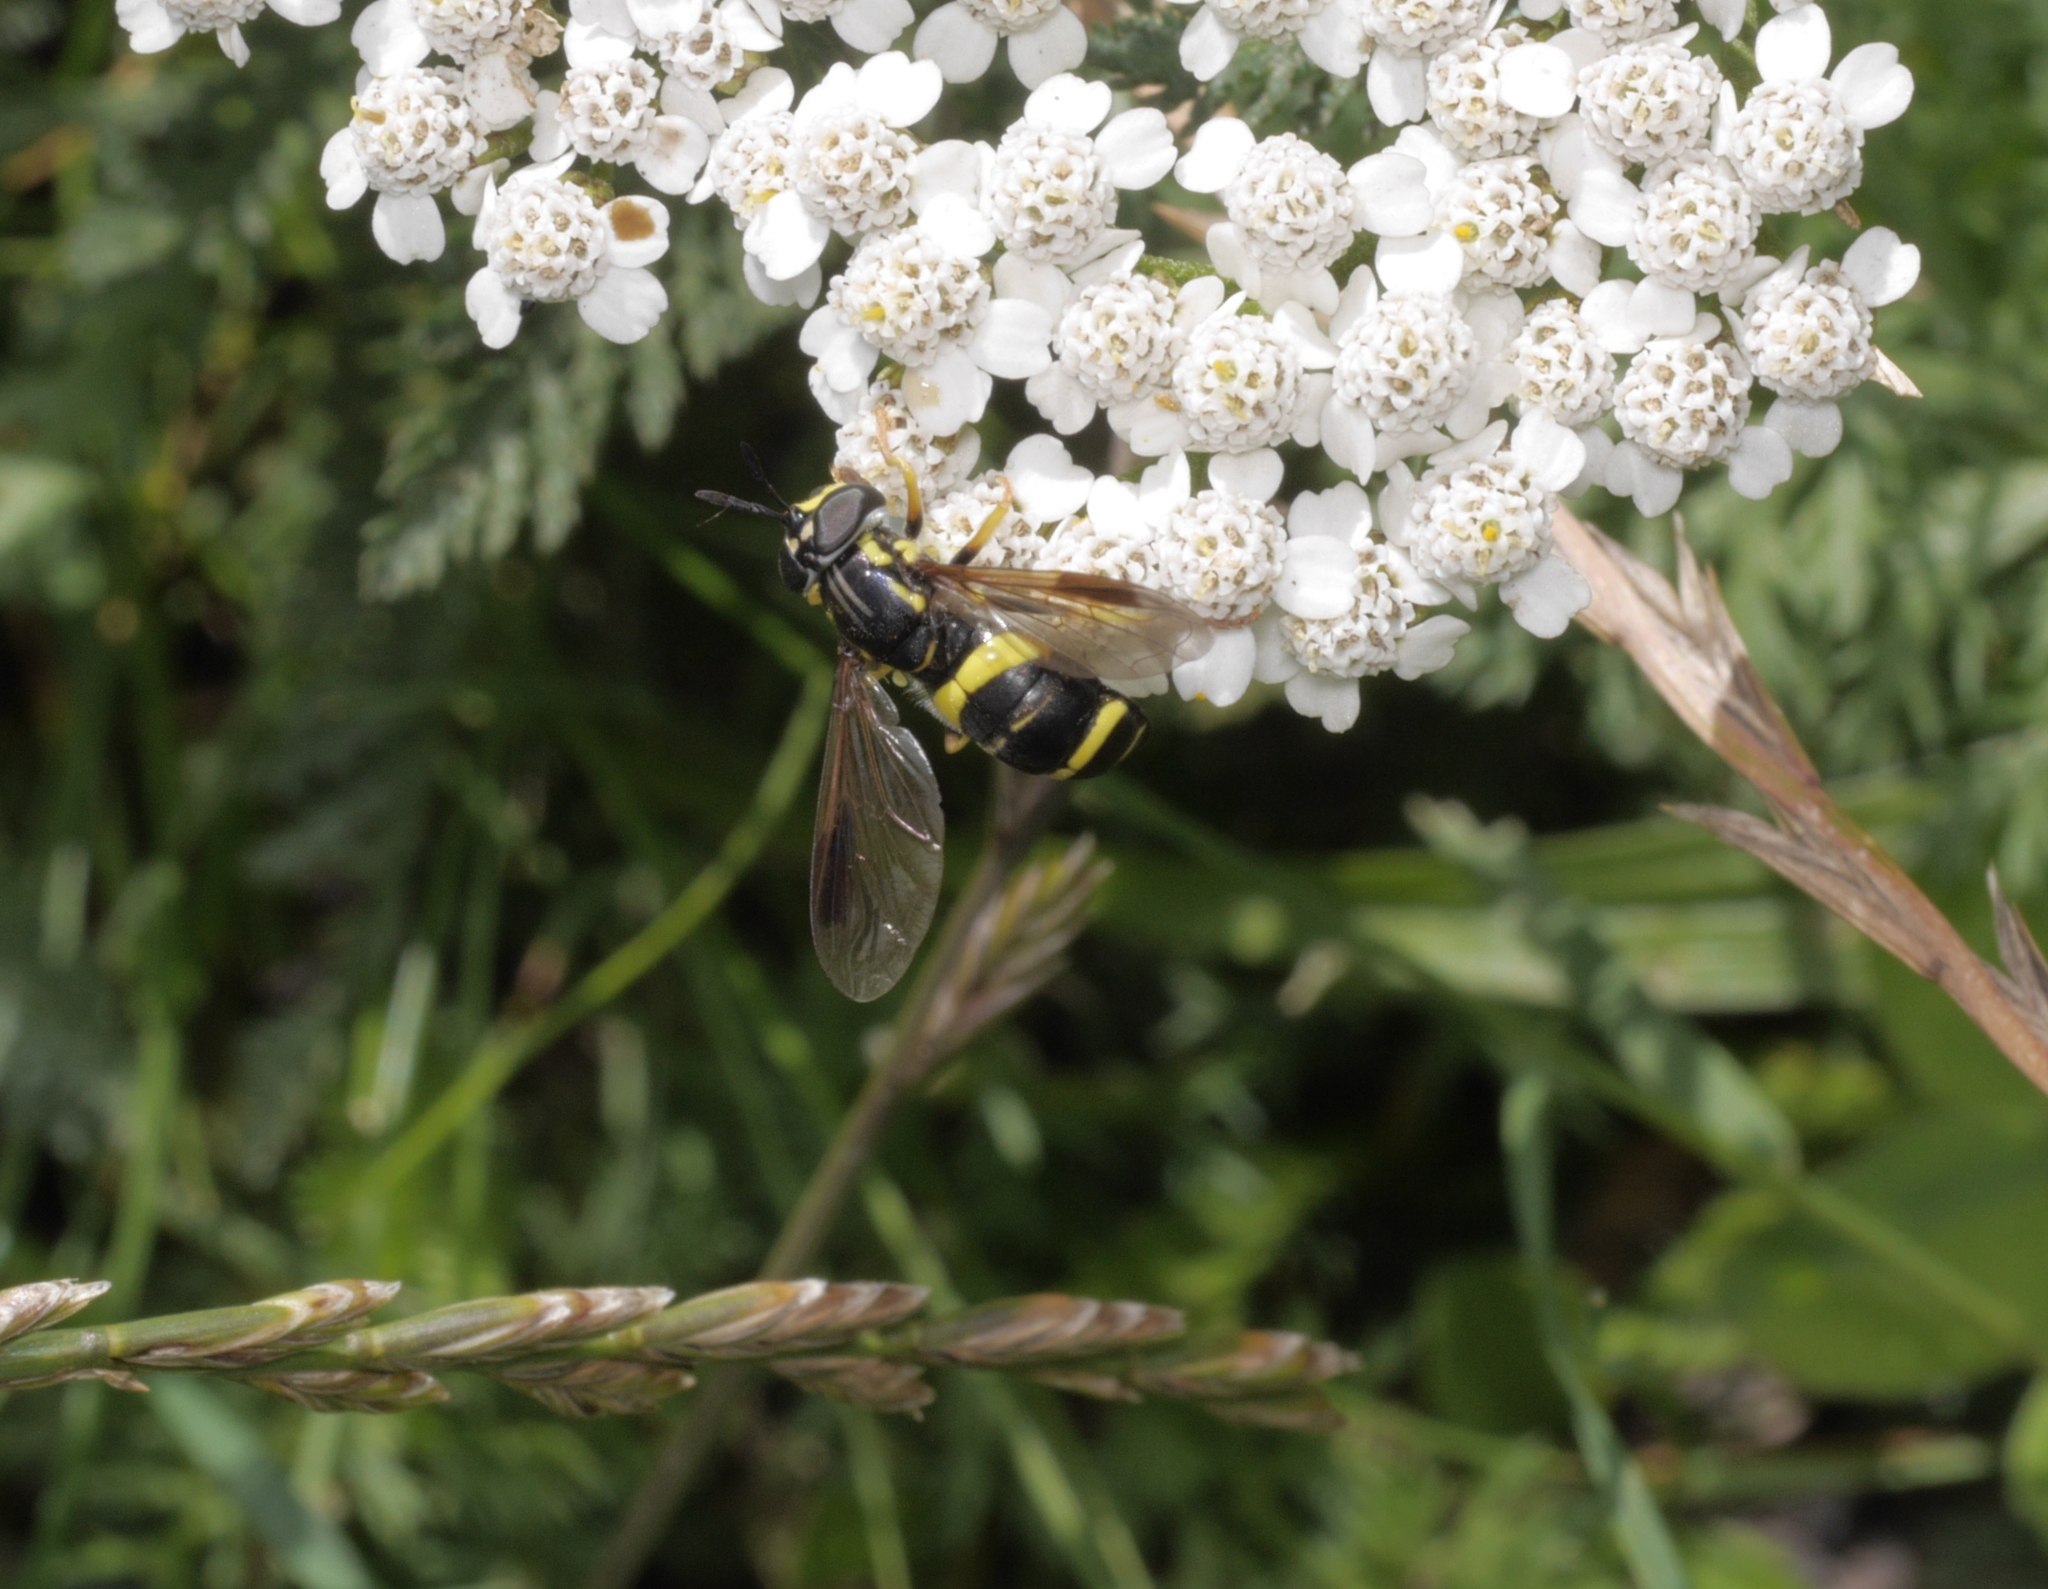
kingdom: Animalia
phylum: Arthropoda
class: Insecta
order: Diptera
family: Syrphidae
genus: Chrysotoxum
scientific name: Chrysotoxum bicincta
